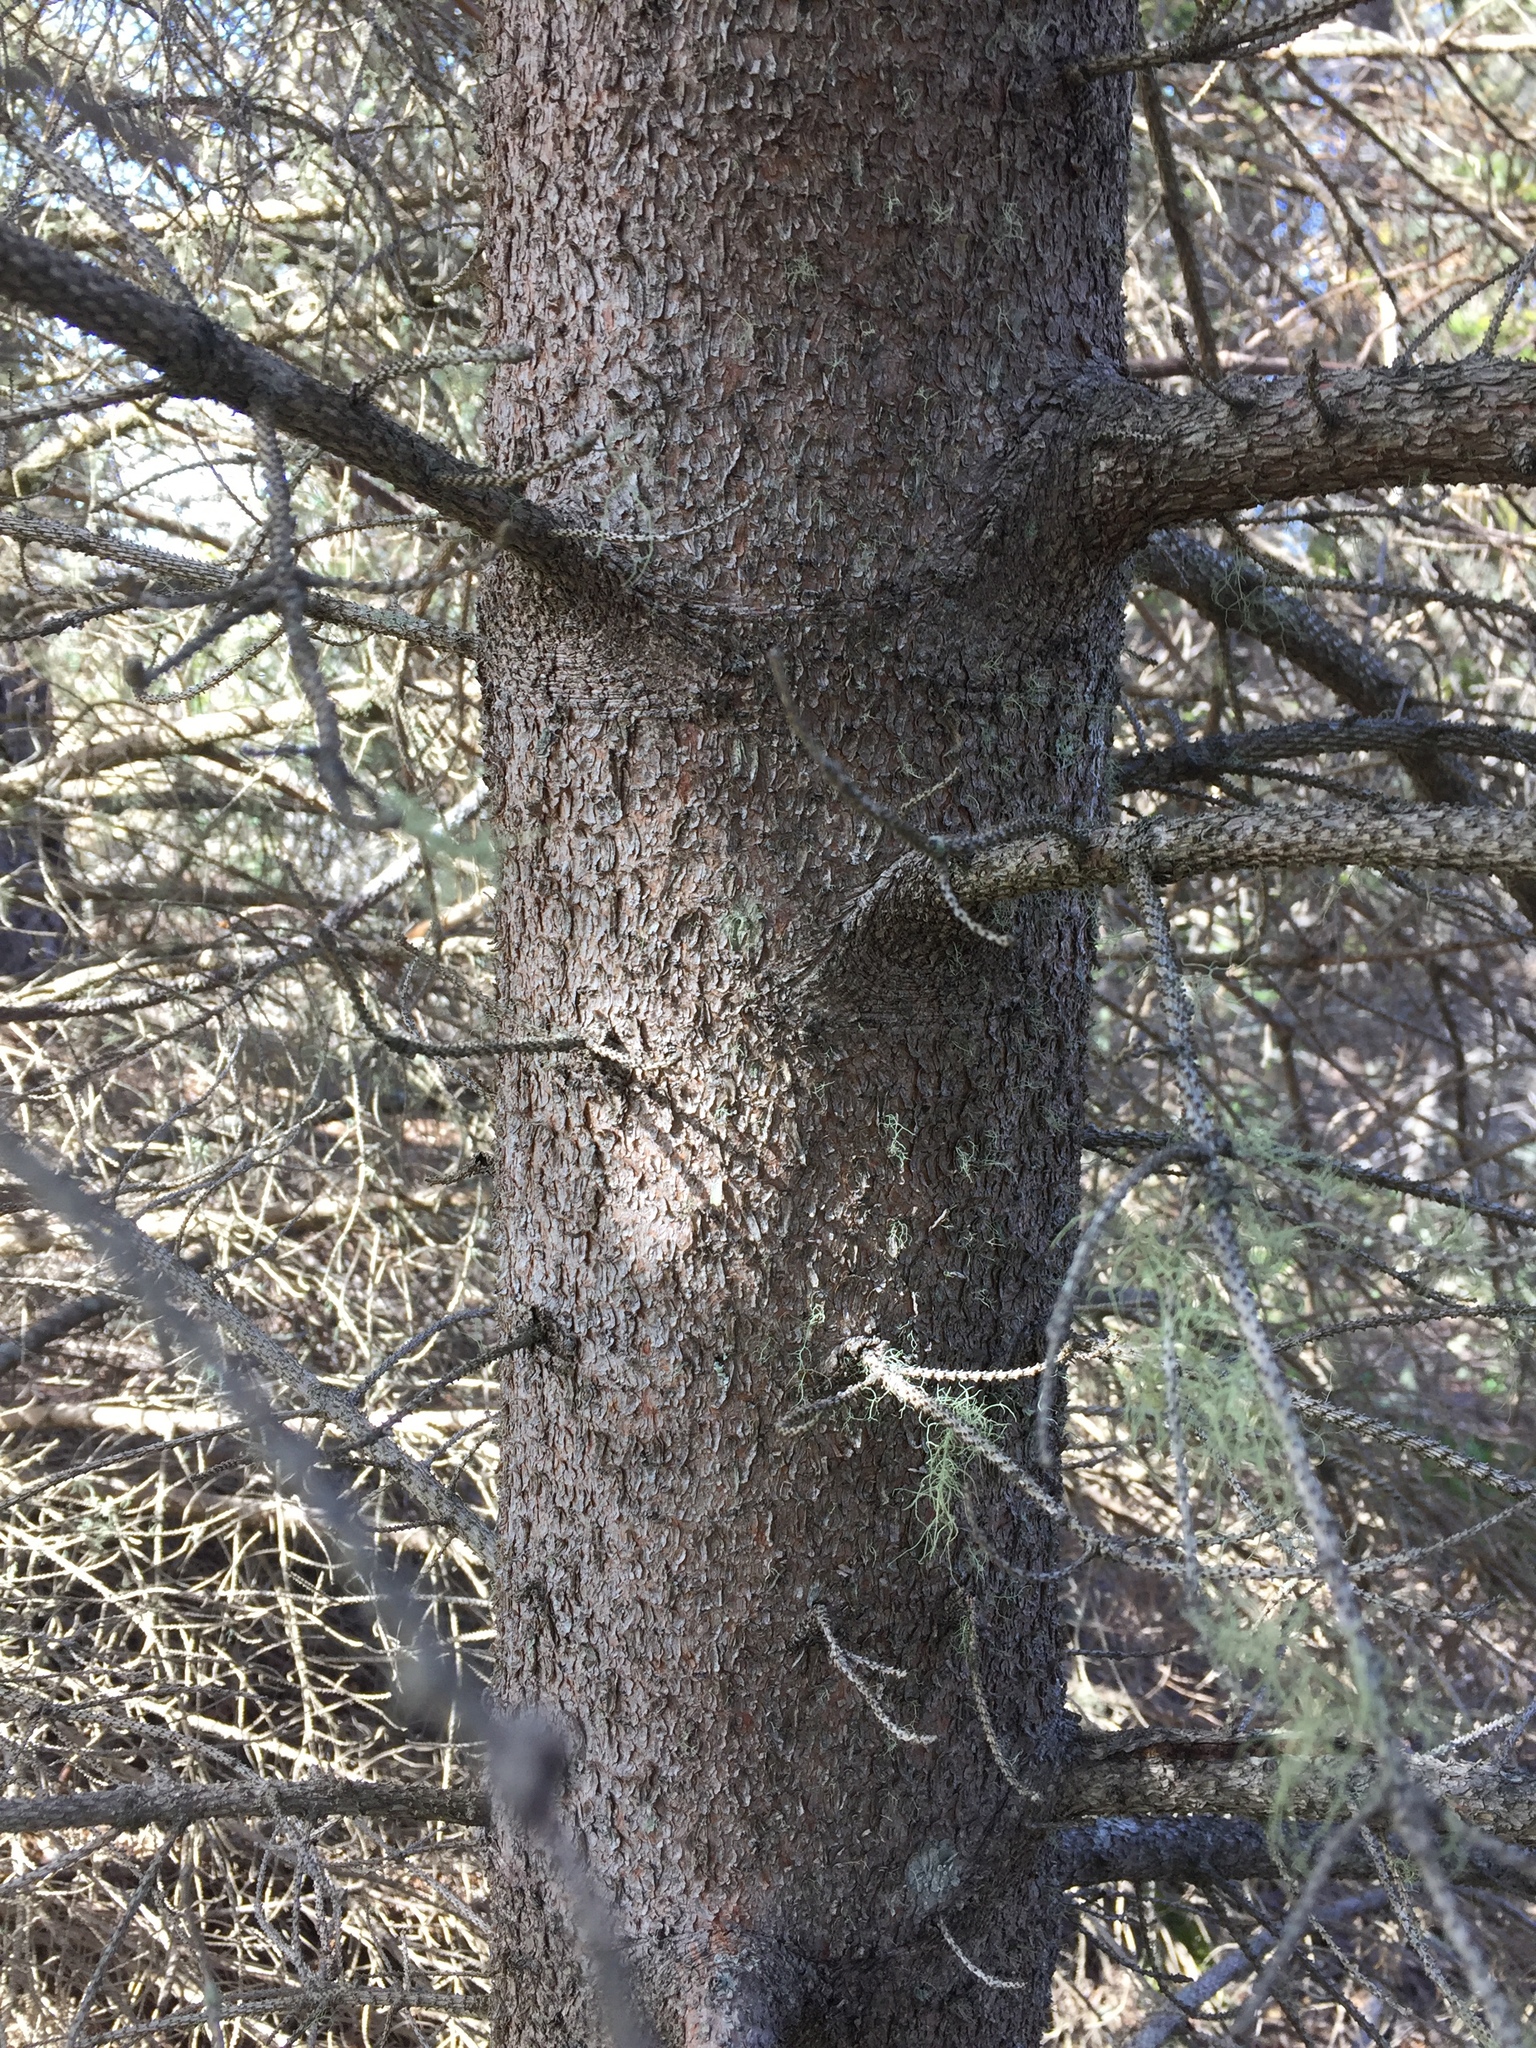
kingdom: Plantae
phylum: Tracheophyta
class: Pinopsida
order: Pinales
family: Pinaceae
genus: Picea
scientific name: Picea sitchensis
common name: Sitka spruce
